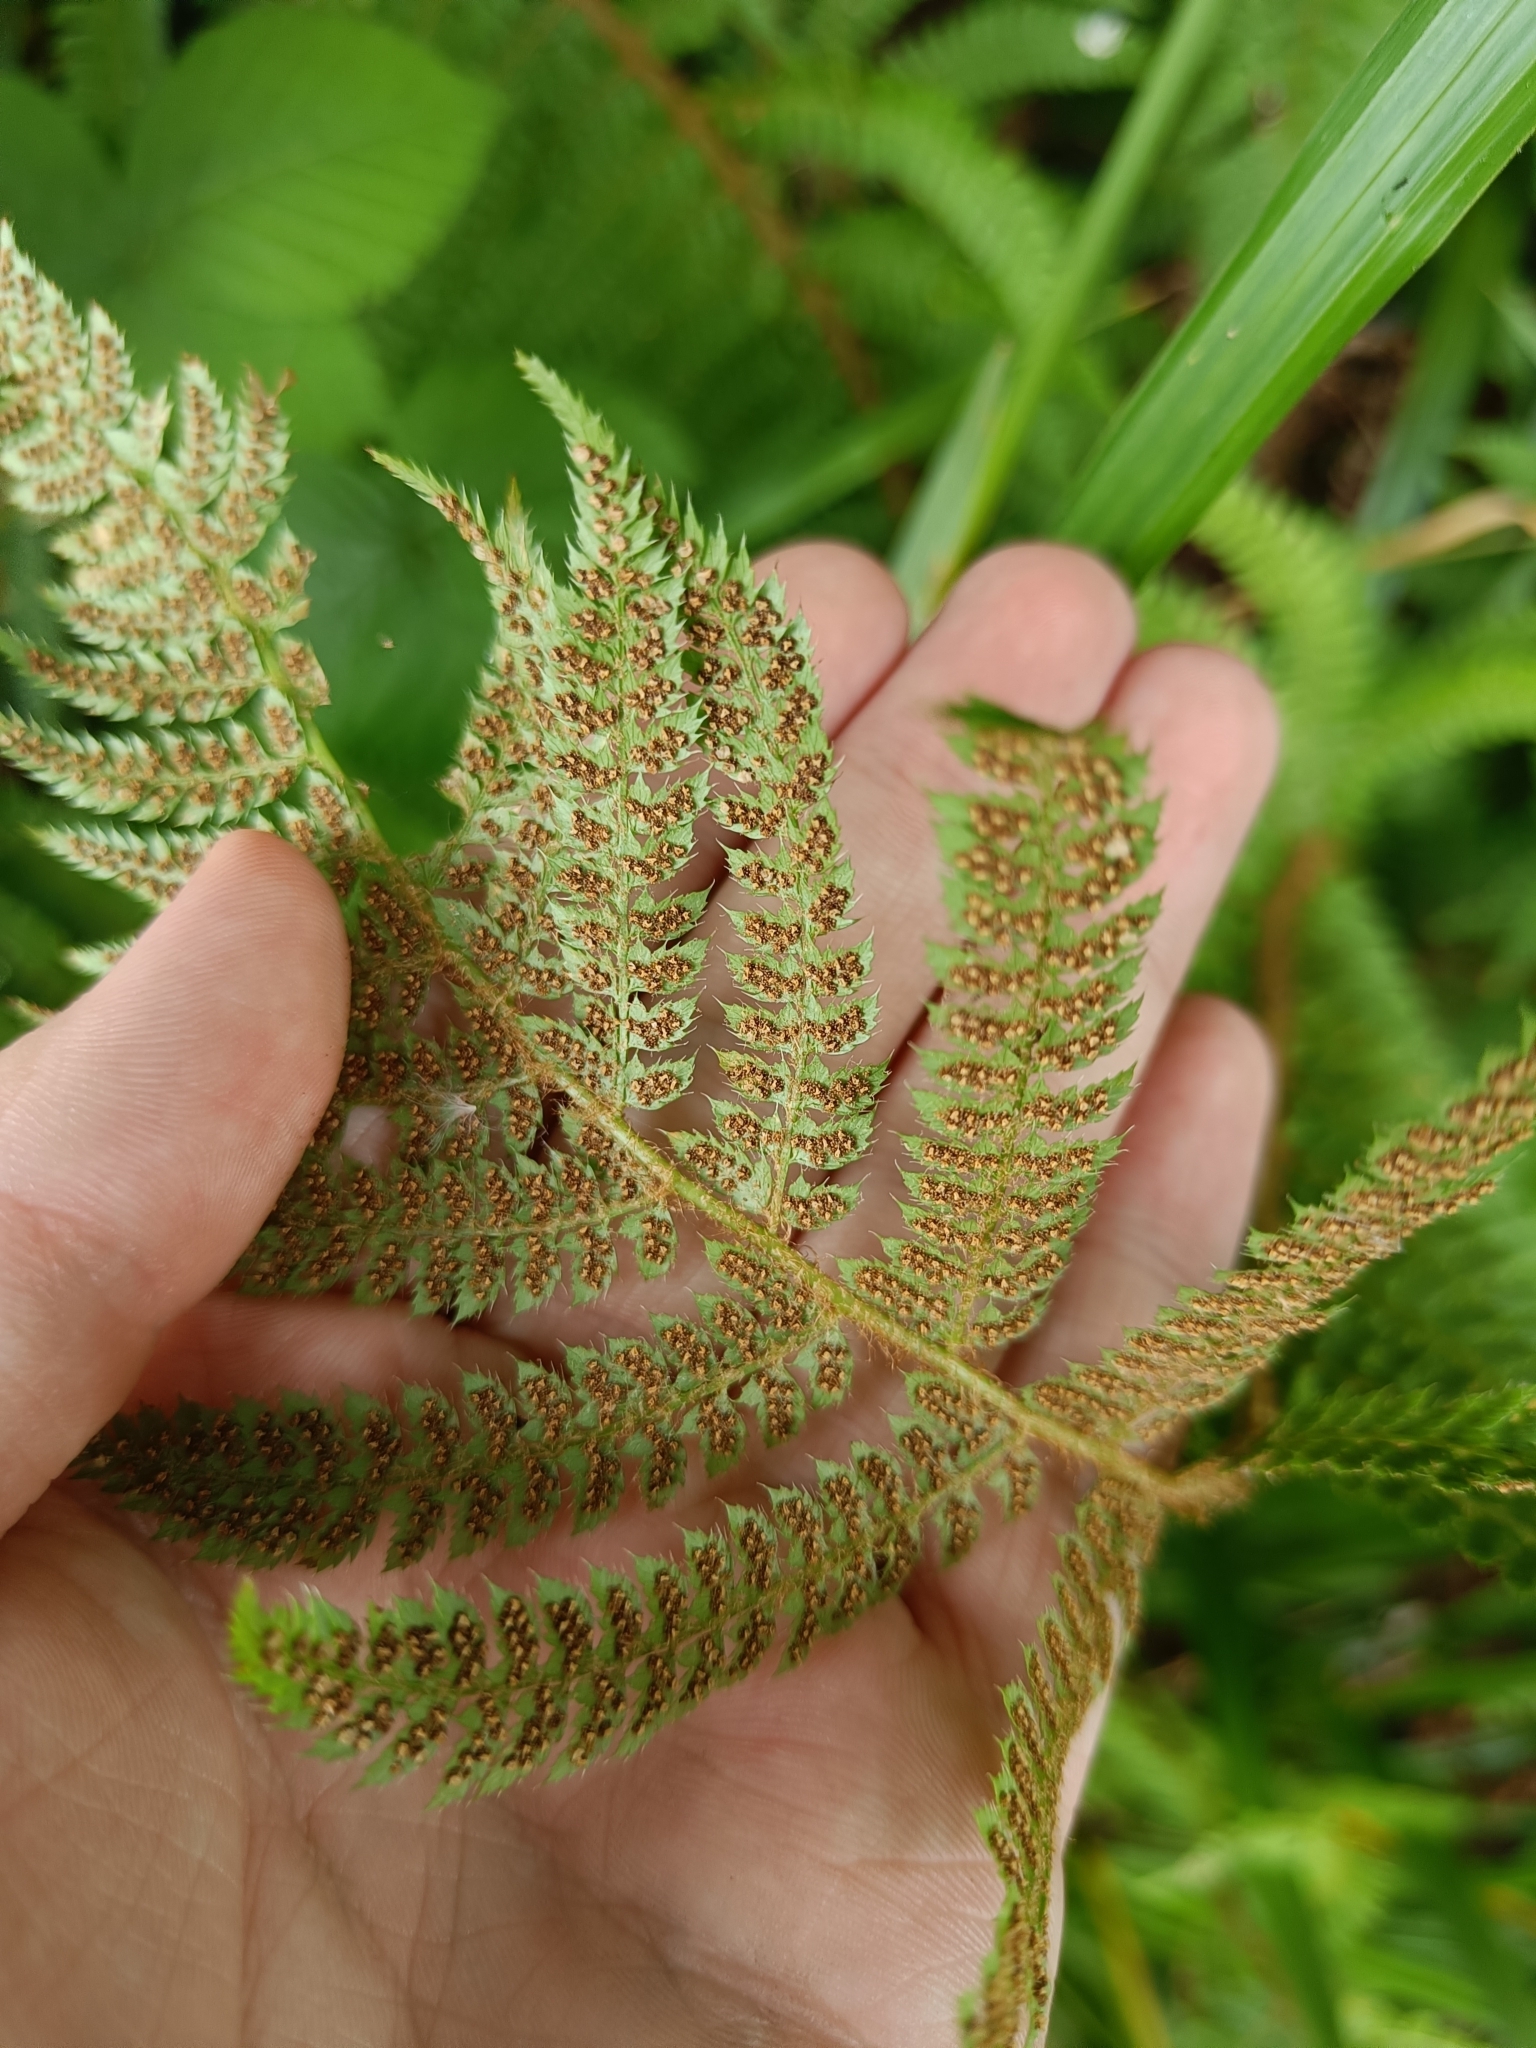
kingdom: Plantae
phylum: Tracheophyta
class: Polypodiopsida
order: Polypodiales
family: Dryopteridaceae
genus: Polystichum
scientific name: Polystichum setiferum
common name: Soft shield-fern
